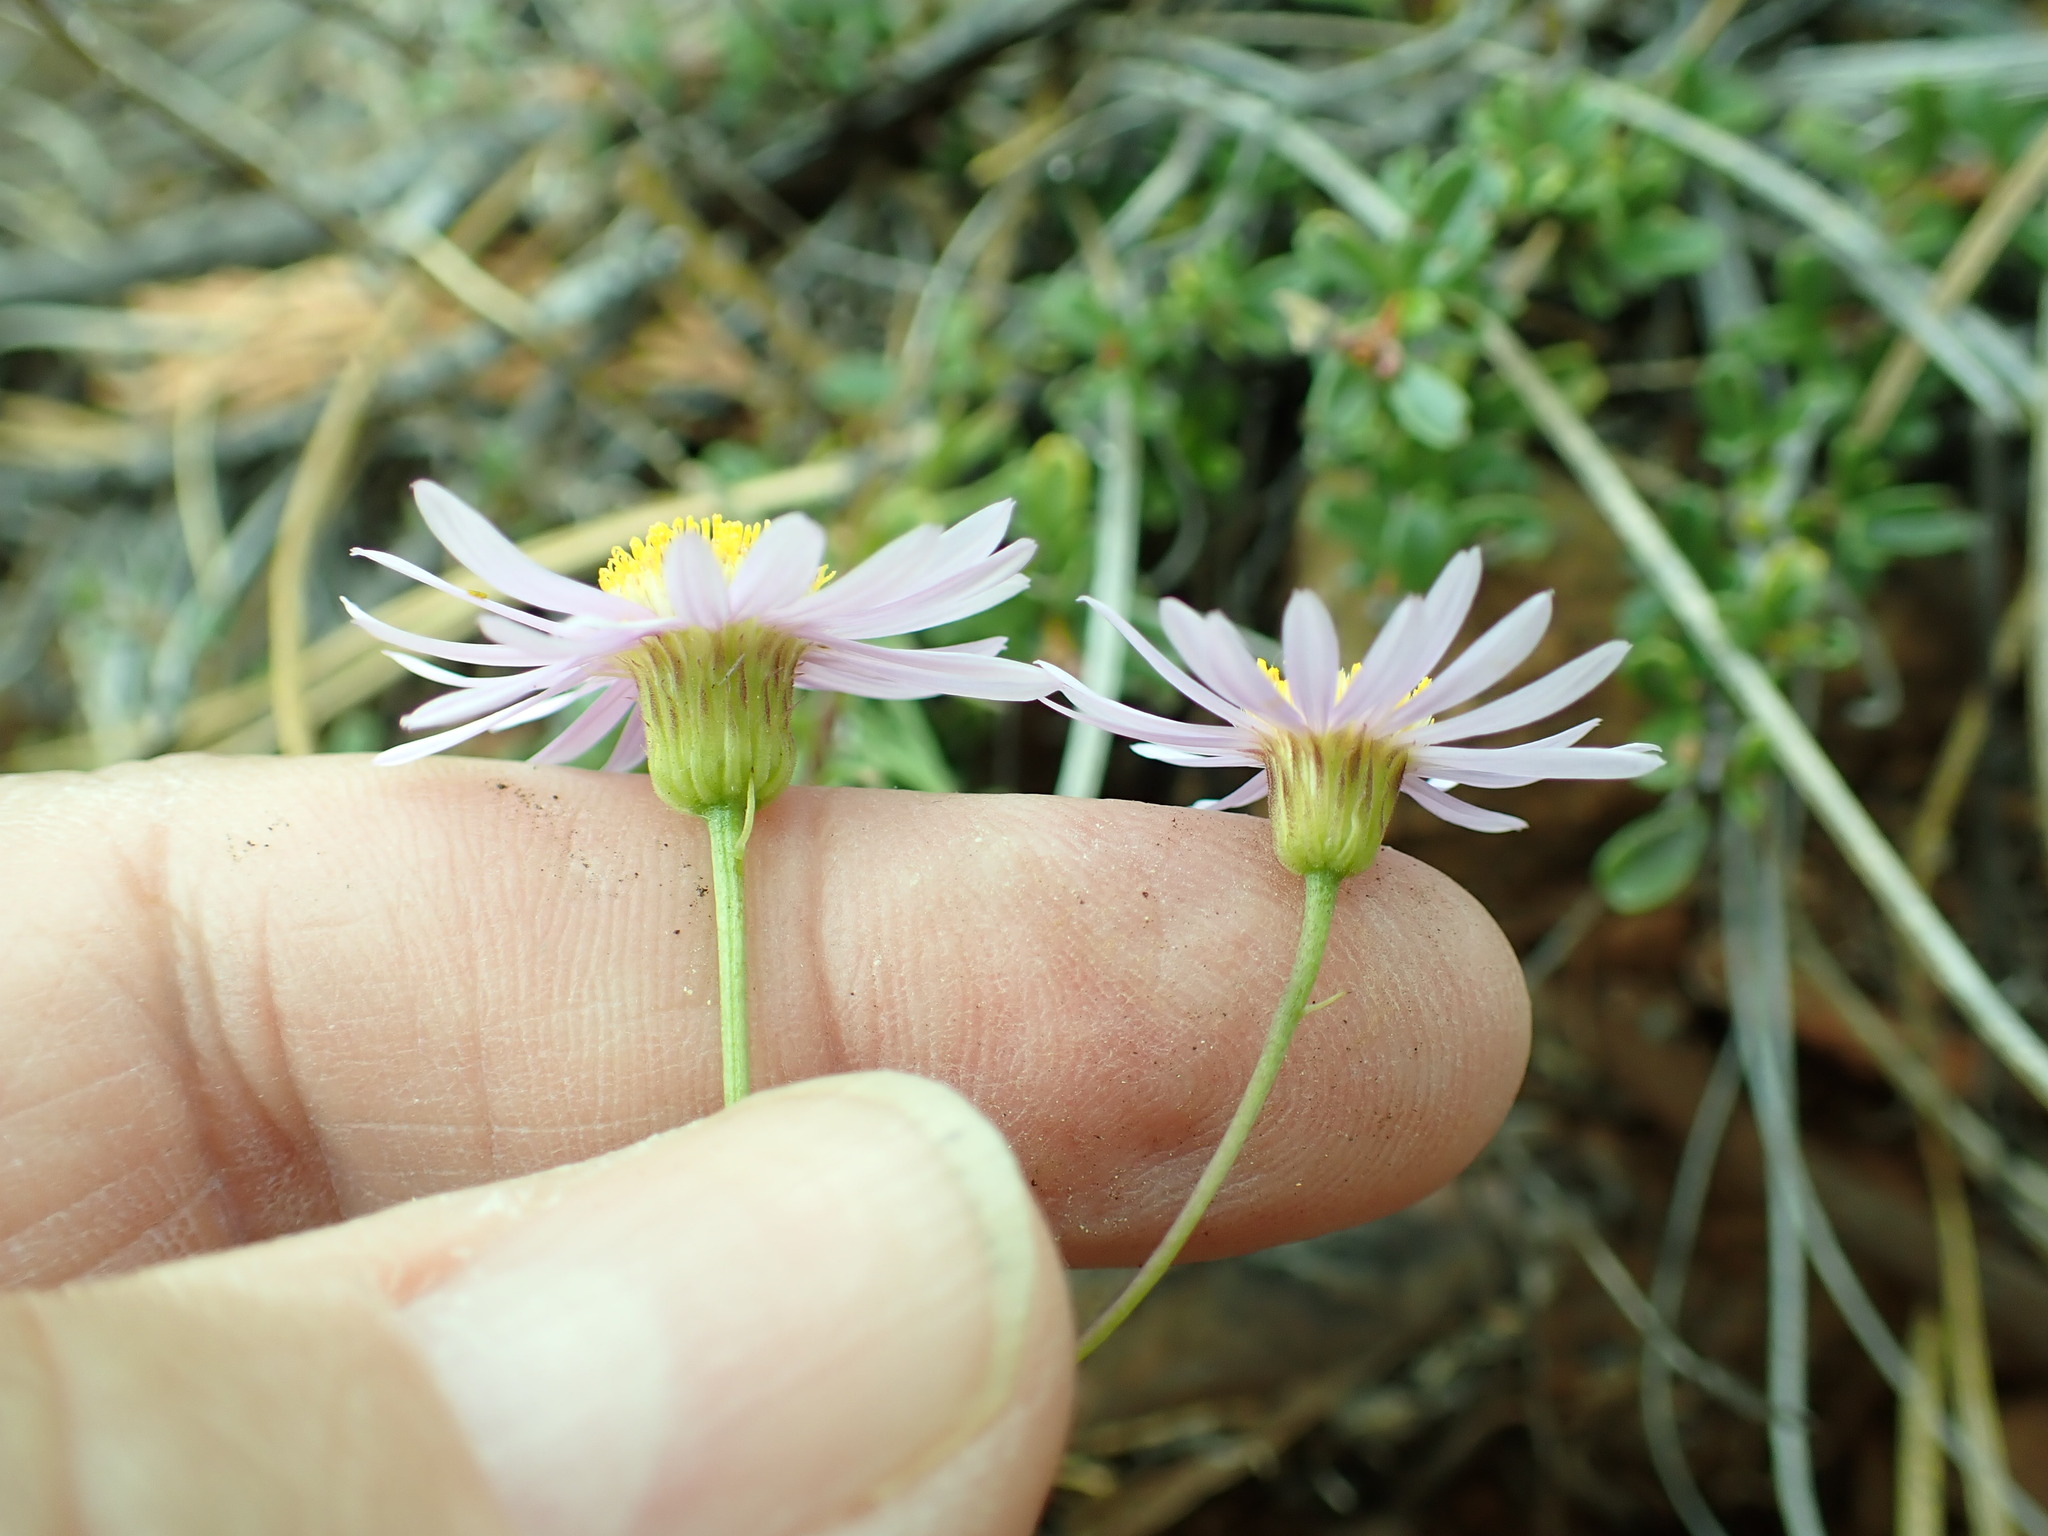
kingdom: Plantae
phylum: Tracheophyta
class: Magnoliopsida
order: Asterales
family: Asteraceae
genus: Erigeron
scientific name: Erigeron foliosus
